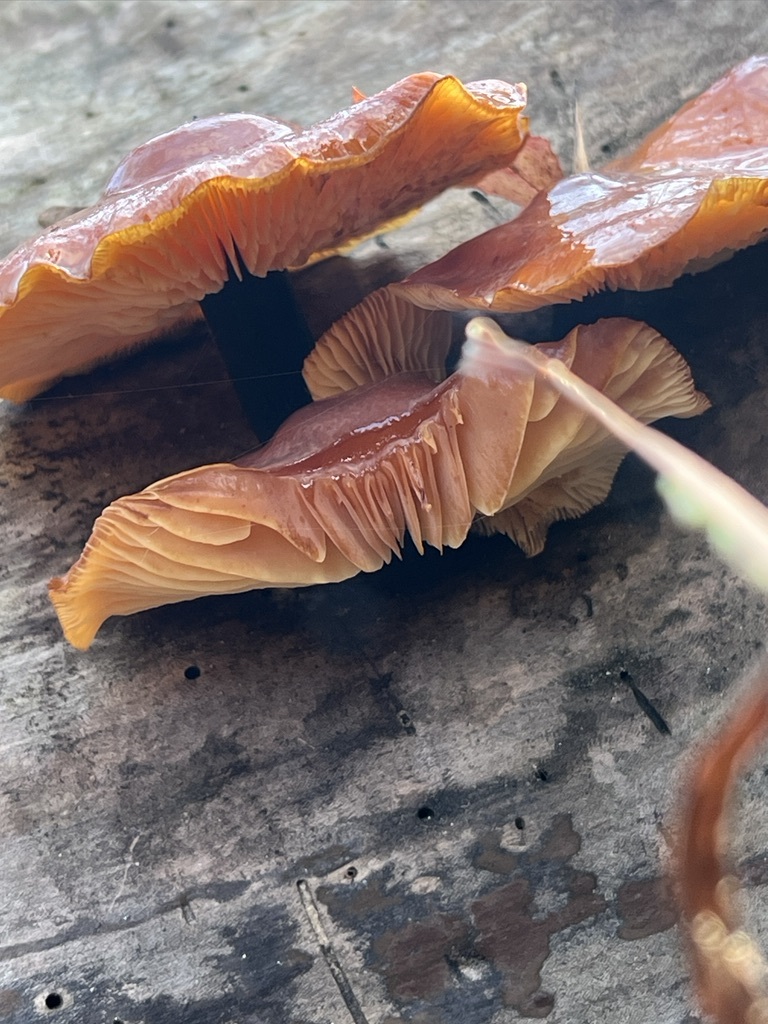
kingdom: Fungi
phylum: Basidiomycota
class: Agaricomycetes
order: Agaricales
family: Physalacriaceae
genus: Flammulina
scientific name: Flammulina velutipes
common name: Velvet shank
